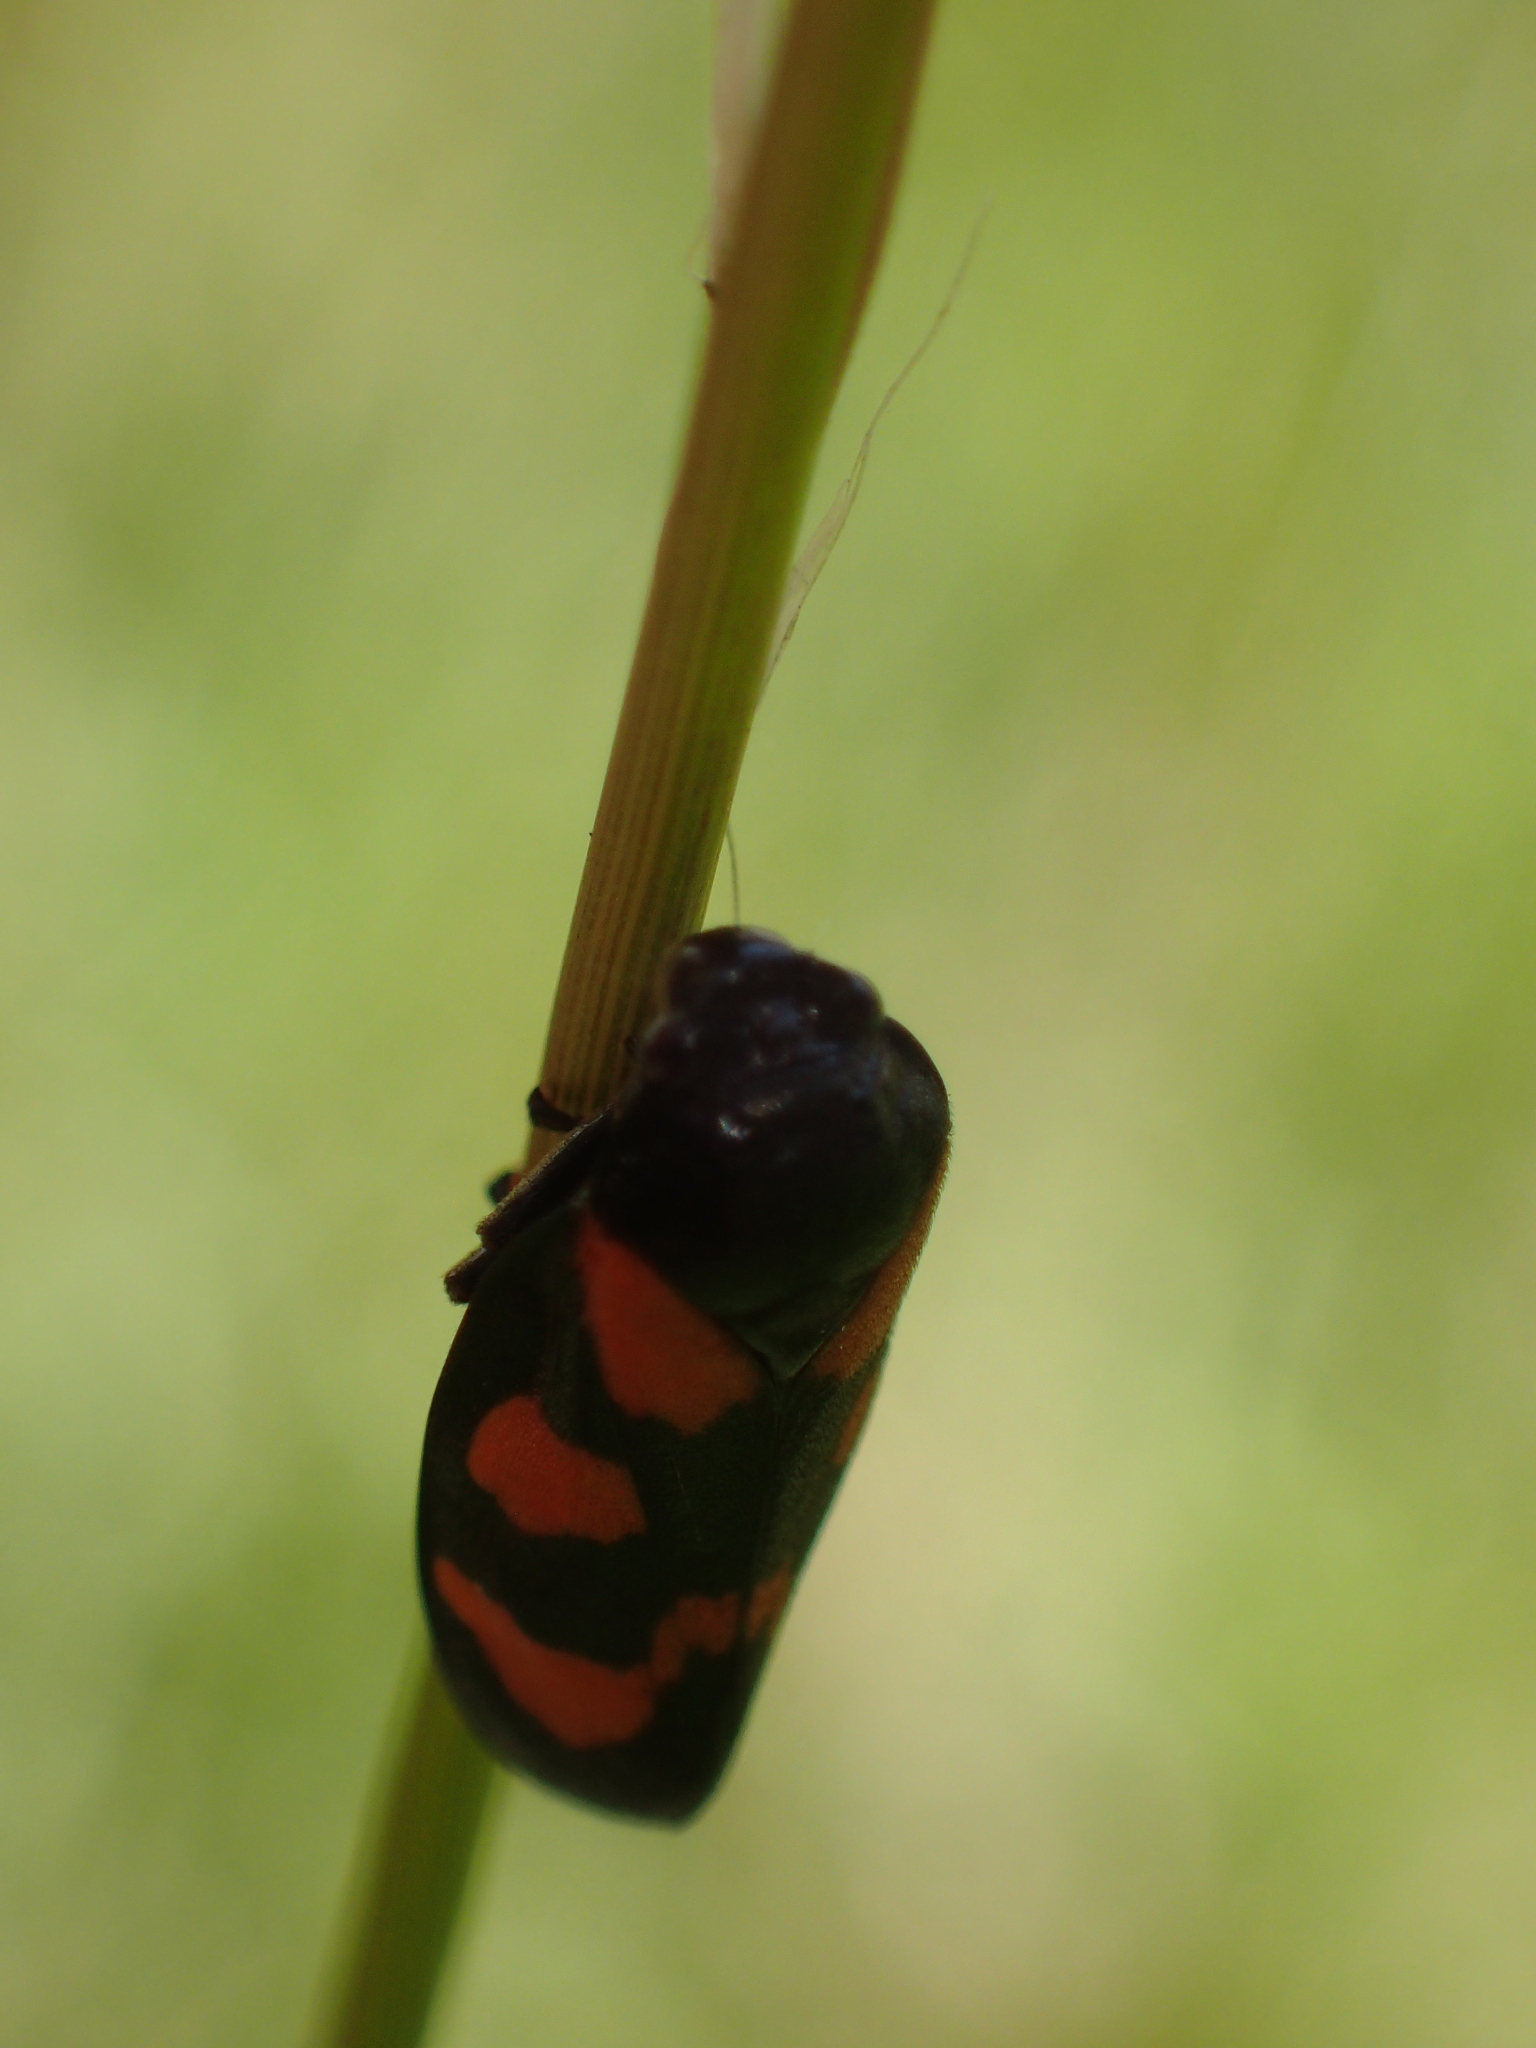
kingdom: Animalia
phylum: Arthropoda
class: Insecta
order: Hemiptera
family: Cercopidae
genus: Cercopis
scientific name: Cercopis vulnerata
